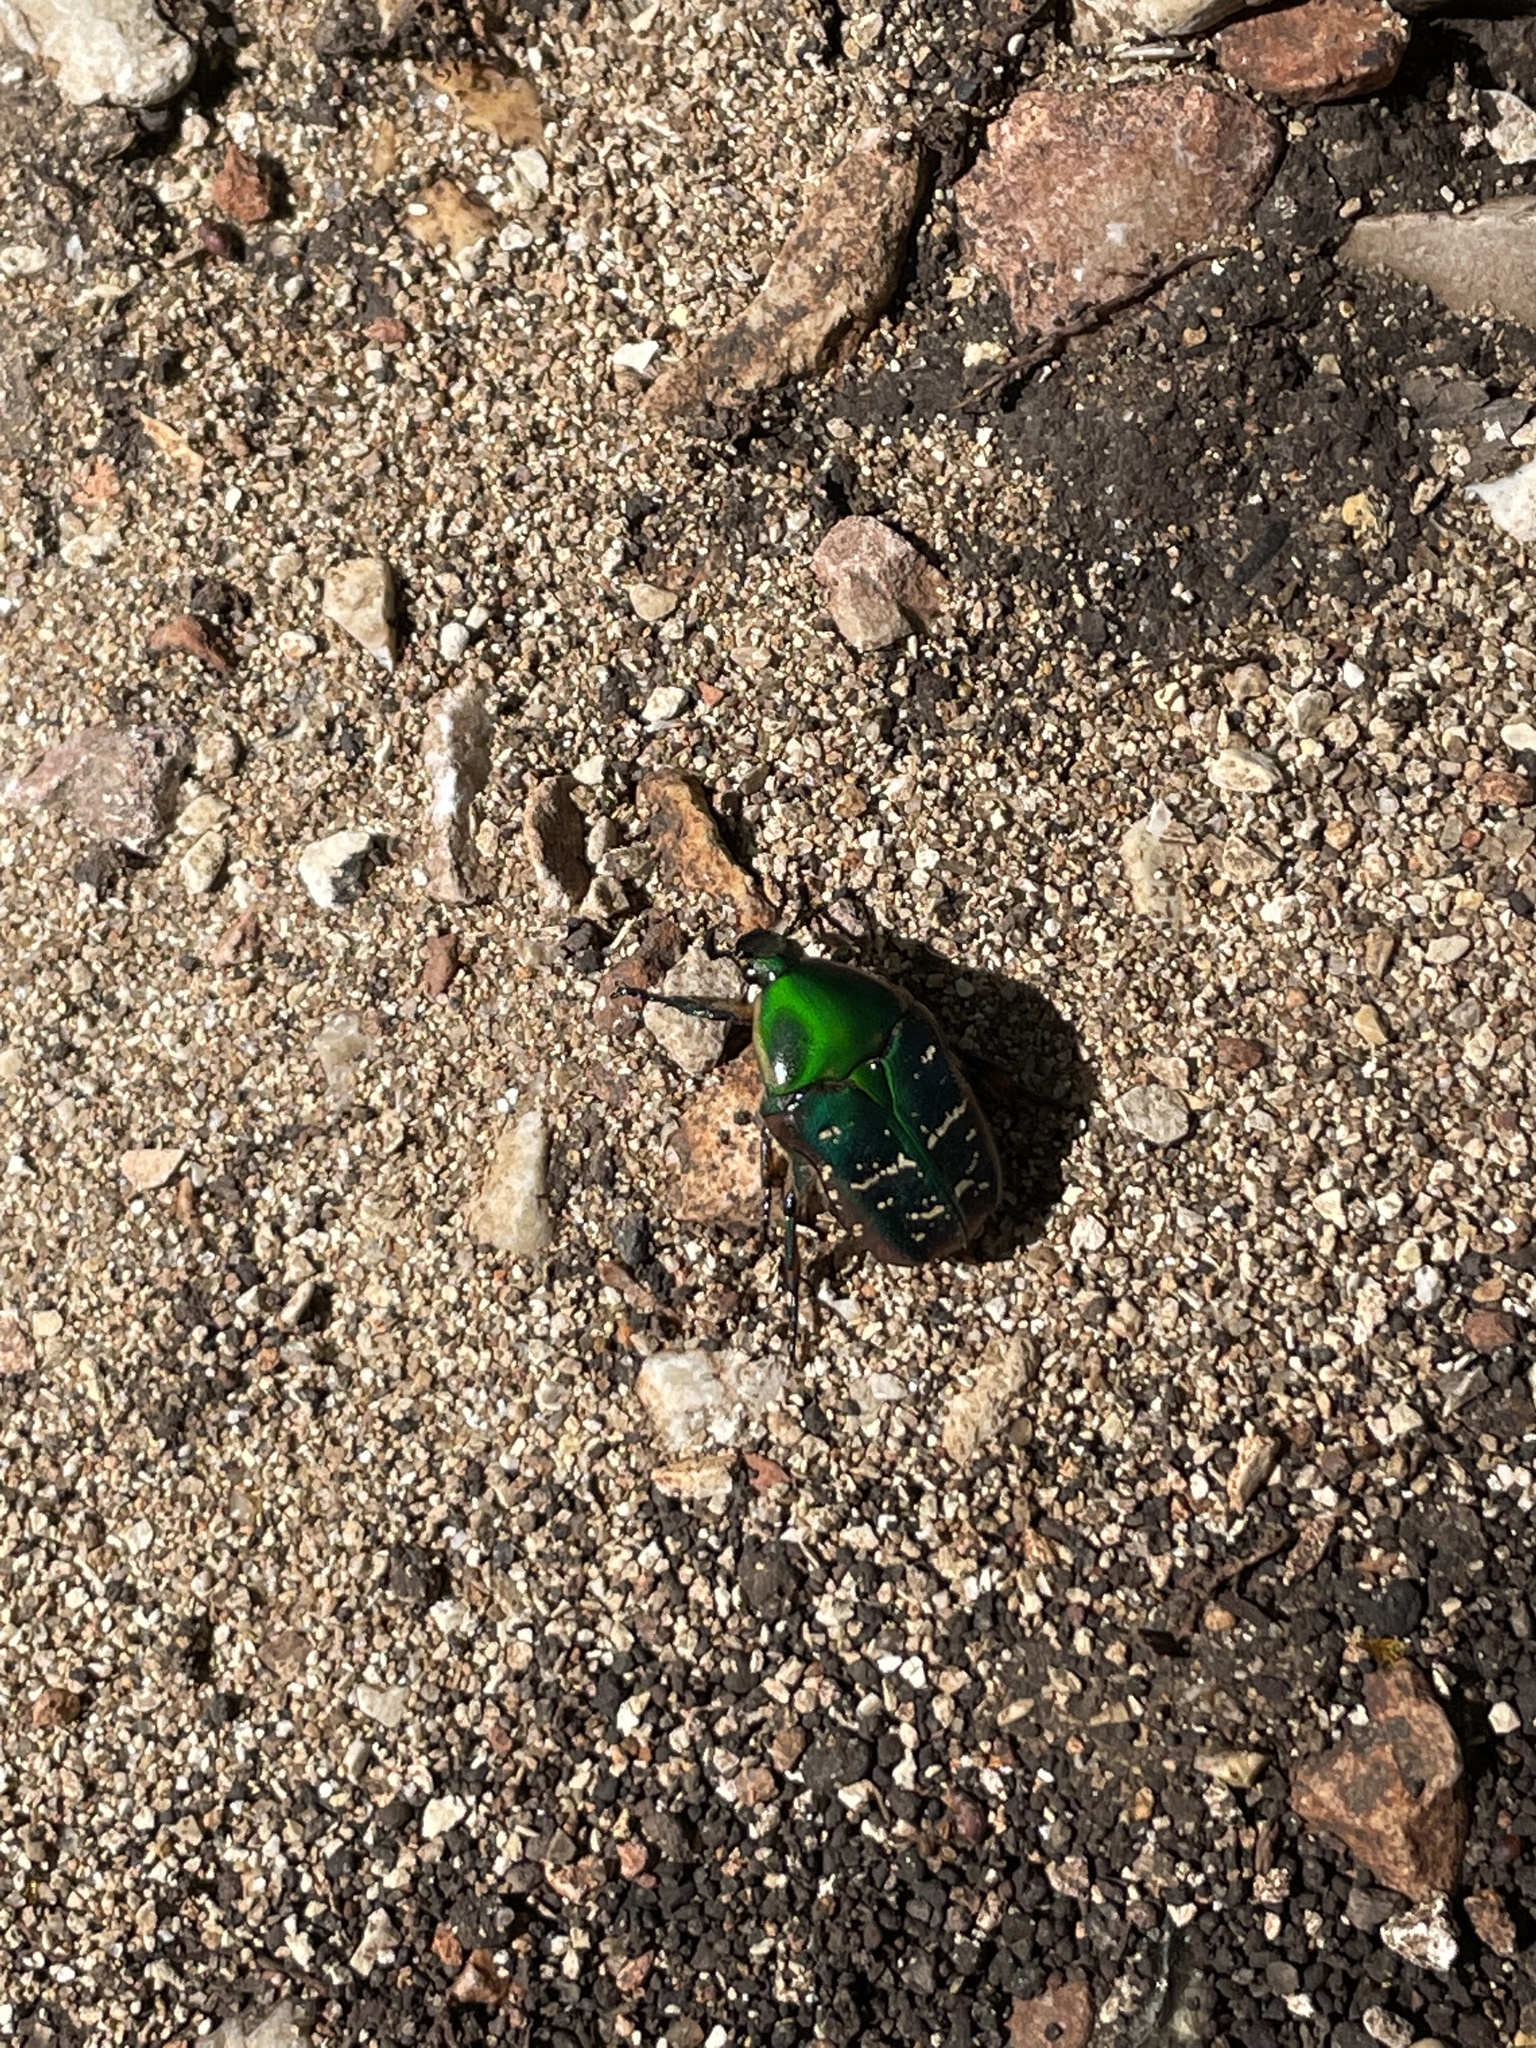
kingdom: Animalia
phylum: Arthropoda
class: Insecta
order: Coleoptera
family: Scarabaeidae
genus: Euphoria
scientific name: Euphoria fulgida
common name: Emerald euphoria
